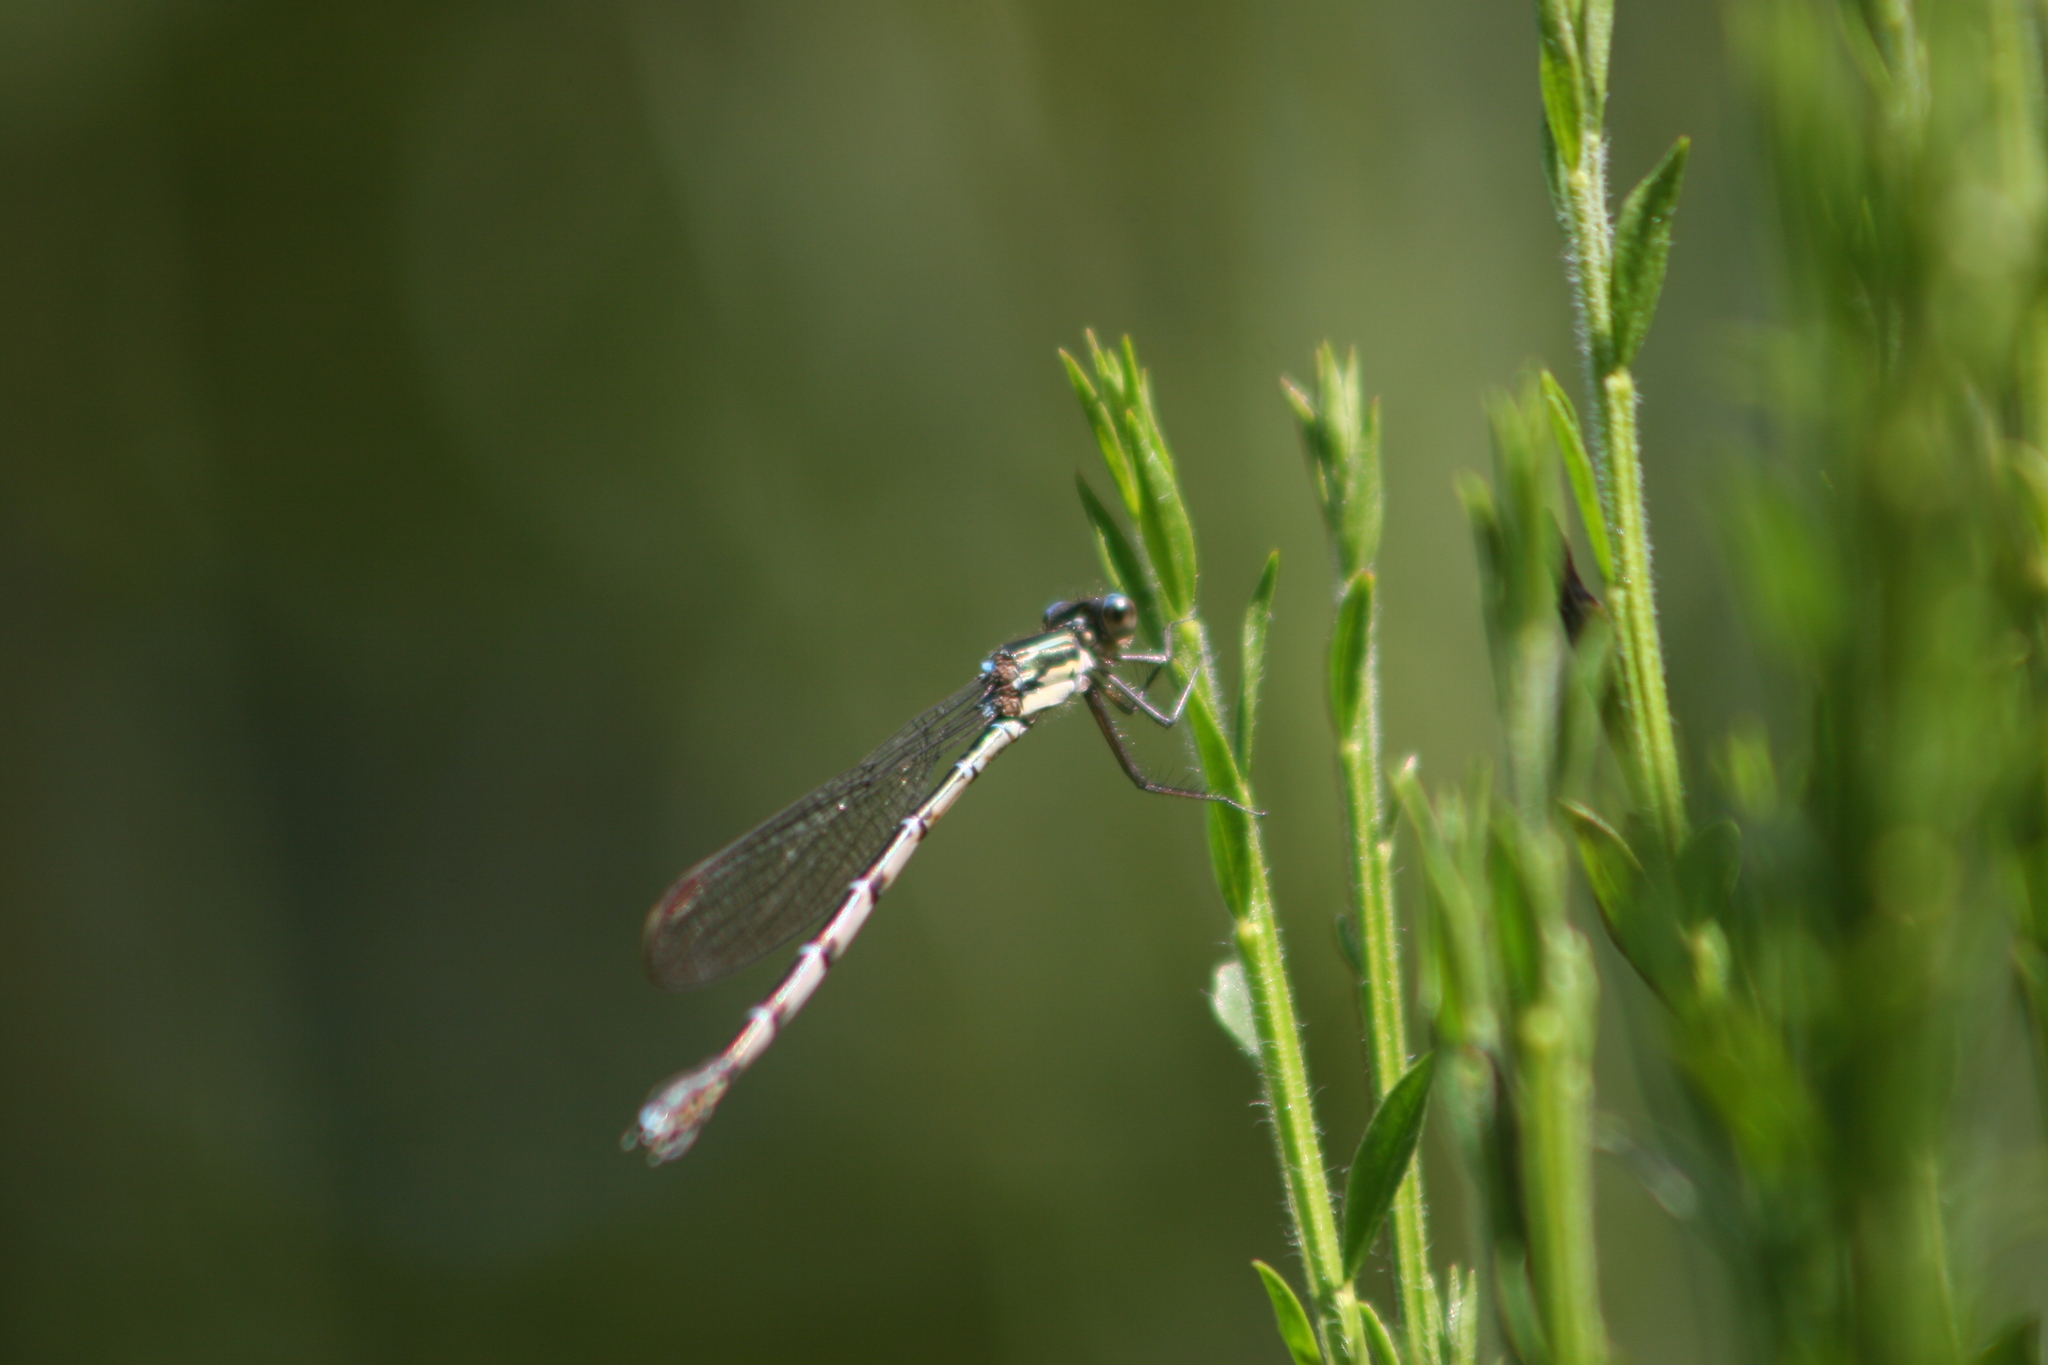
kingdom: Animalia
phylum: Arthropoda
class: Insecta
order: Odonata
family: Lestidae
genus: Austrolestes
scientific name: Austrolestes colensonis
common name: Blue damselfly
